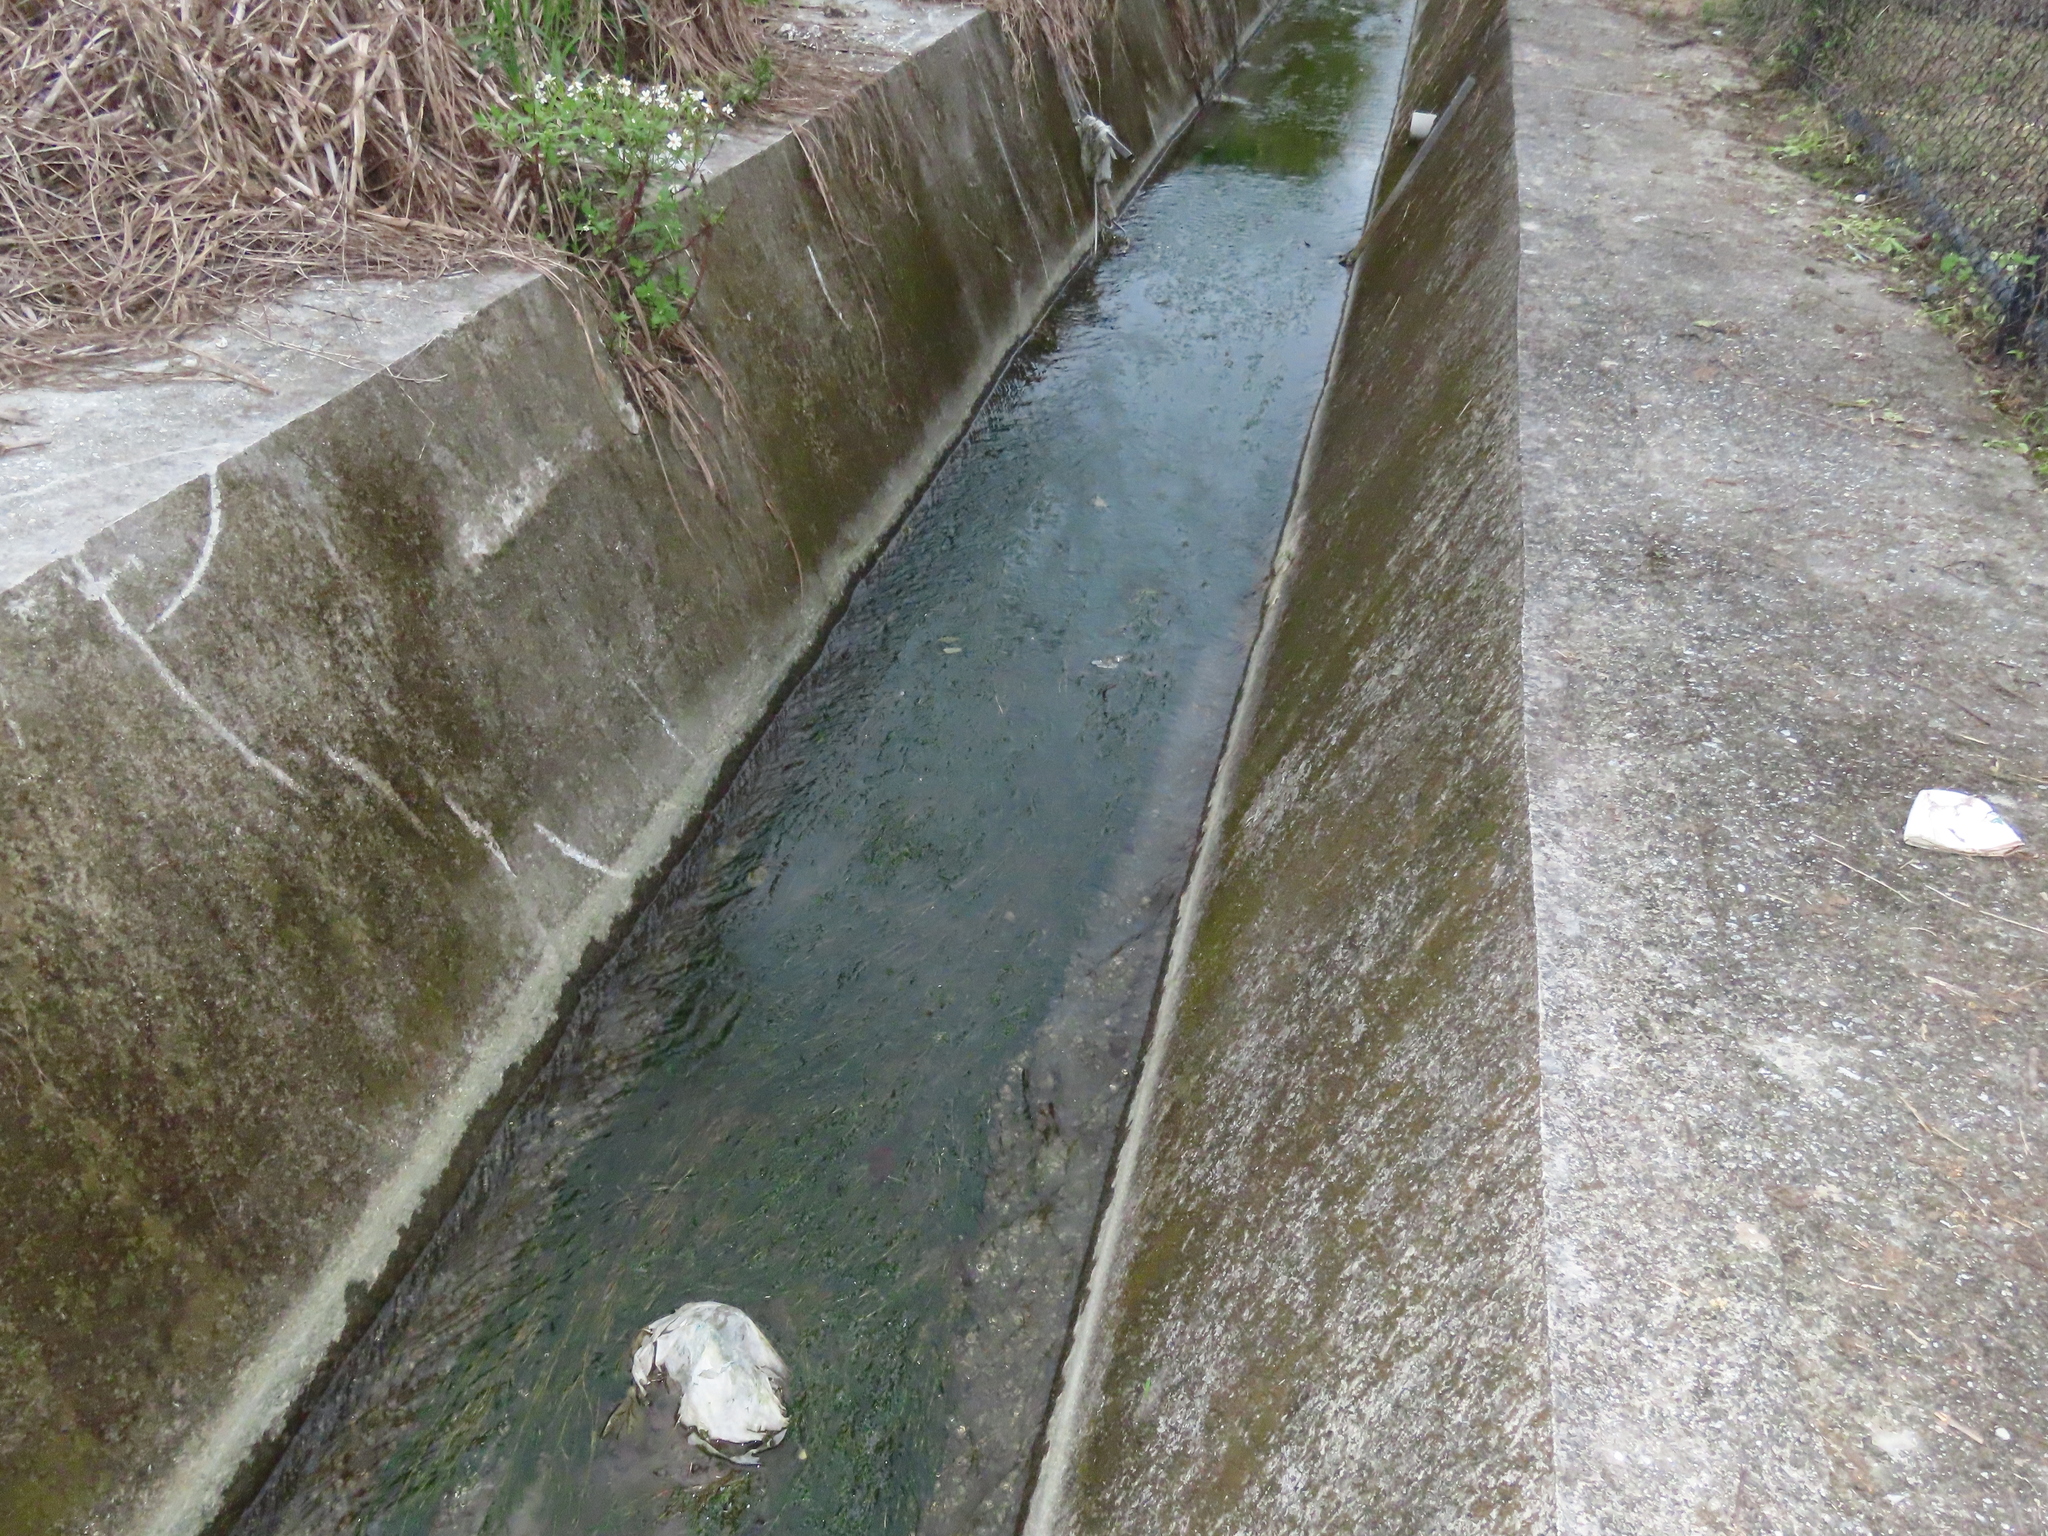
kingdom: Plantae
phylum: Tracheophyta
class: Liliopsida
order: Alismatales
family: Potamogetonaceae
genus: Potamogeton
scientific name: Potamogeton crispus
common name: Curled pondweed
